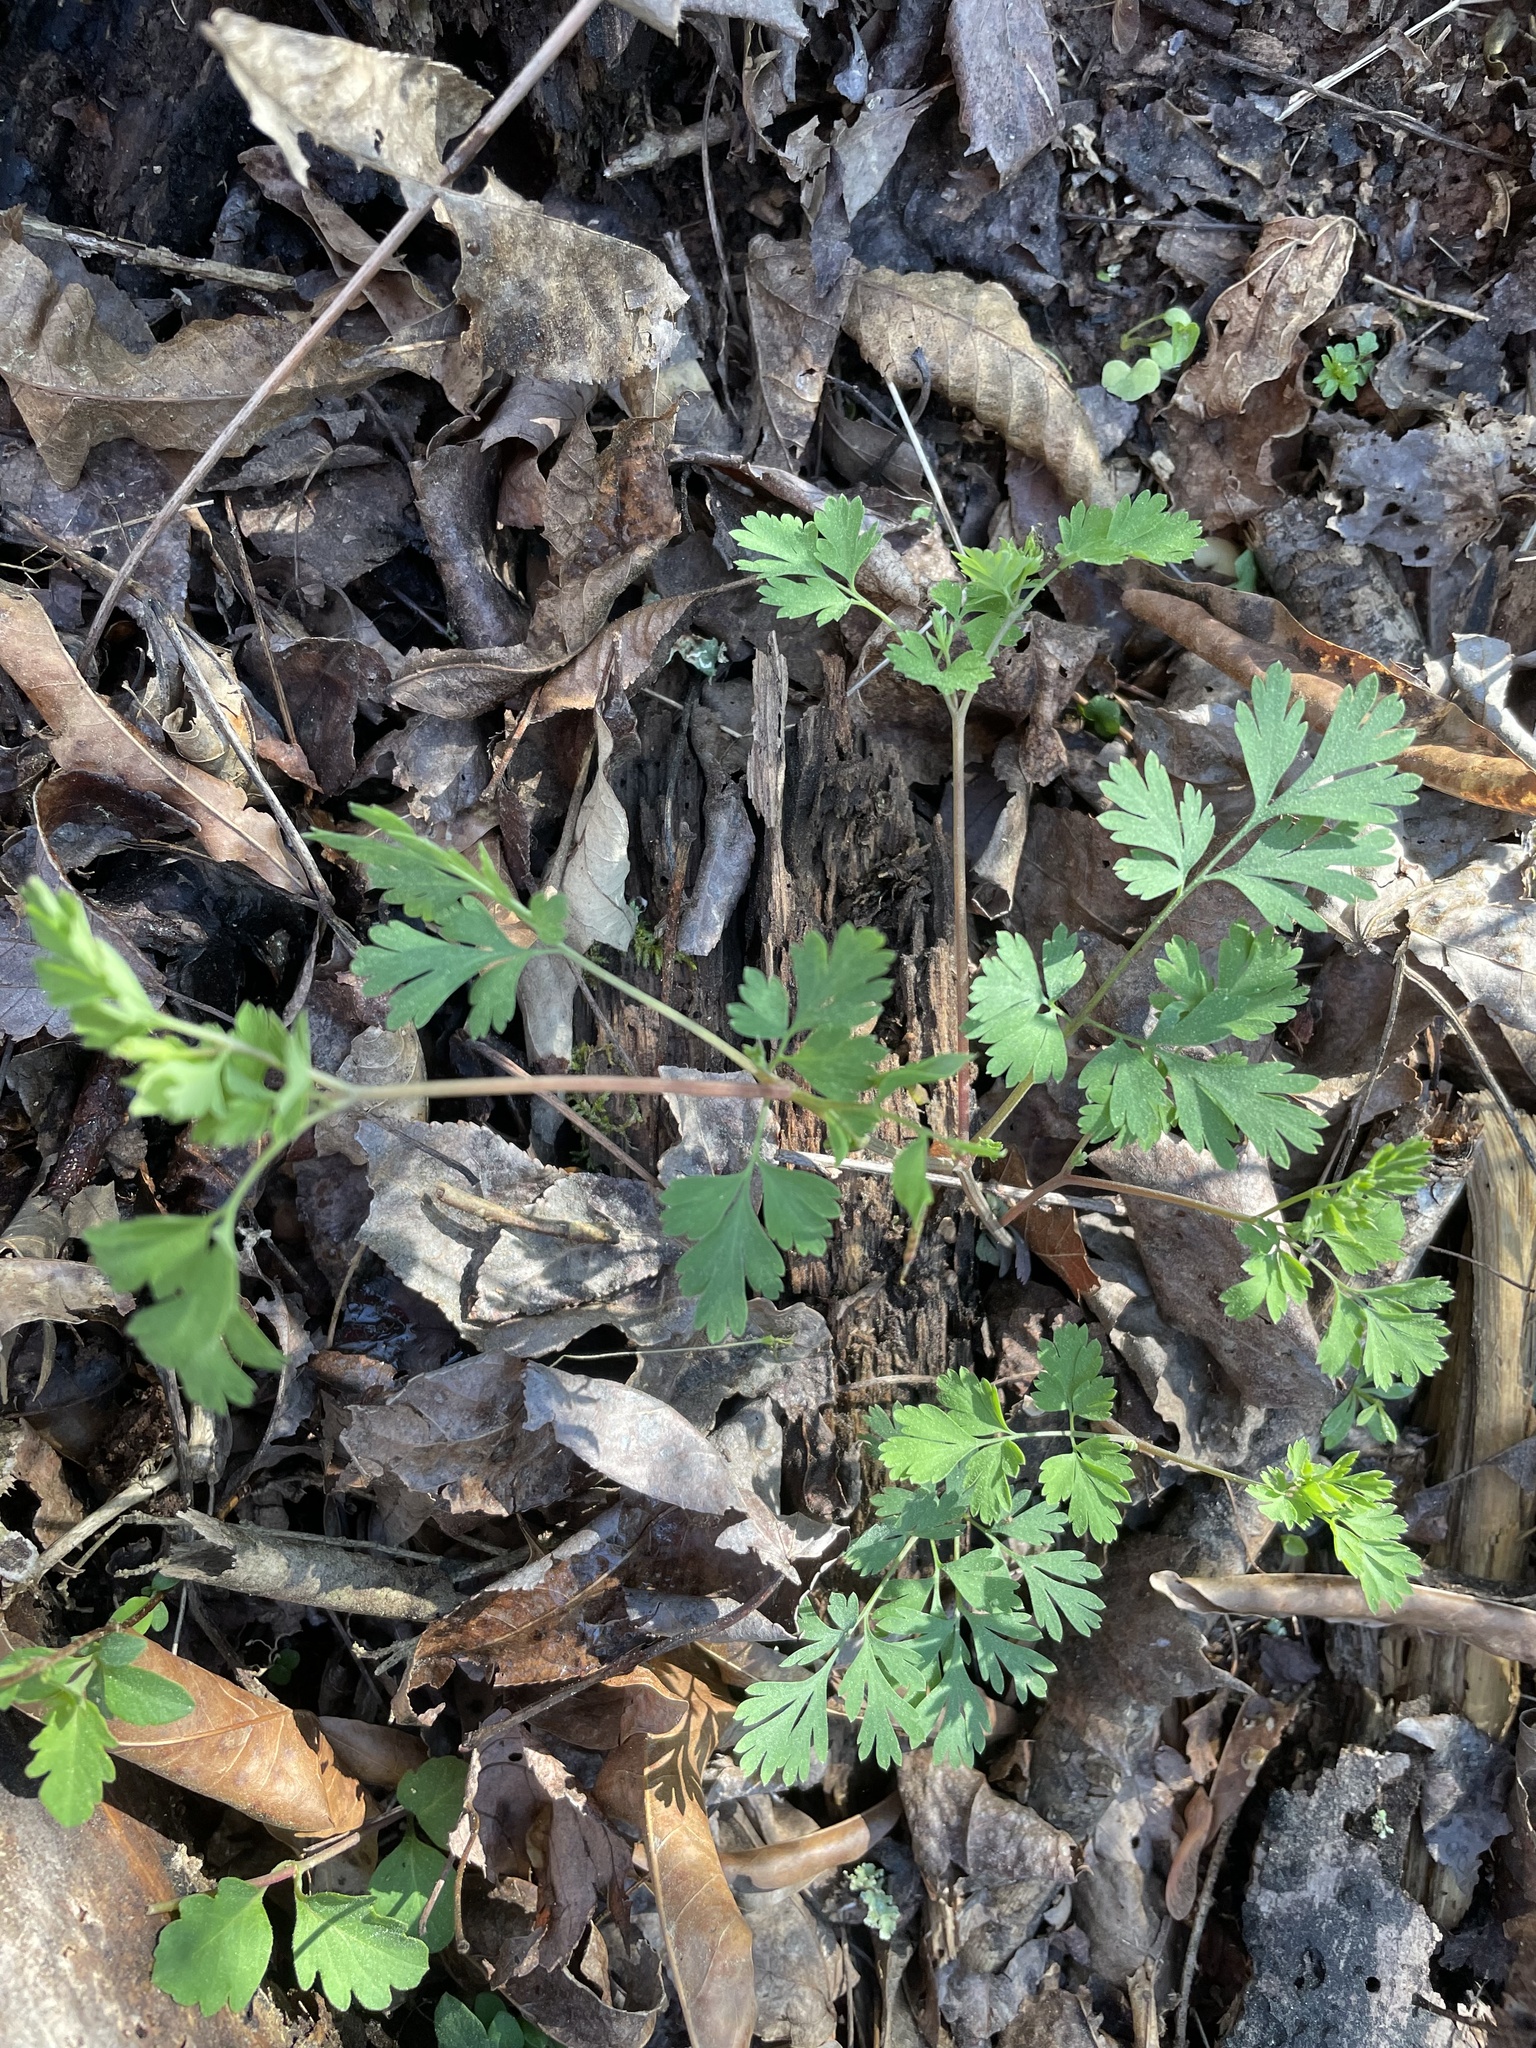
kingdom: Plantae
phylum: Tracheophyta
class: Magnoliopsida
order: Ranunculales
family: Papaveraceae
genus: Corydalis
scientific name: Corydalis flavula
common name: Yellow corydalis
